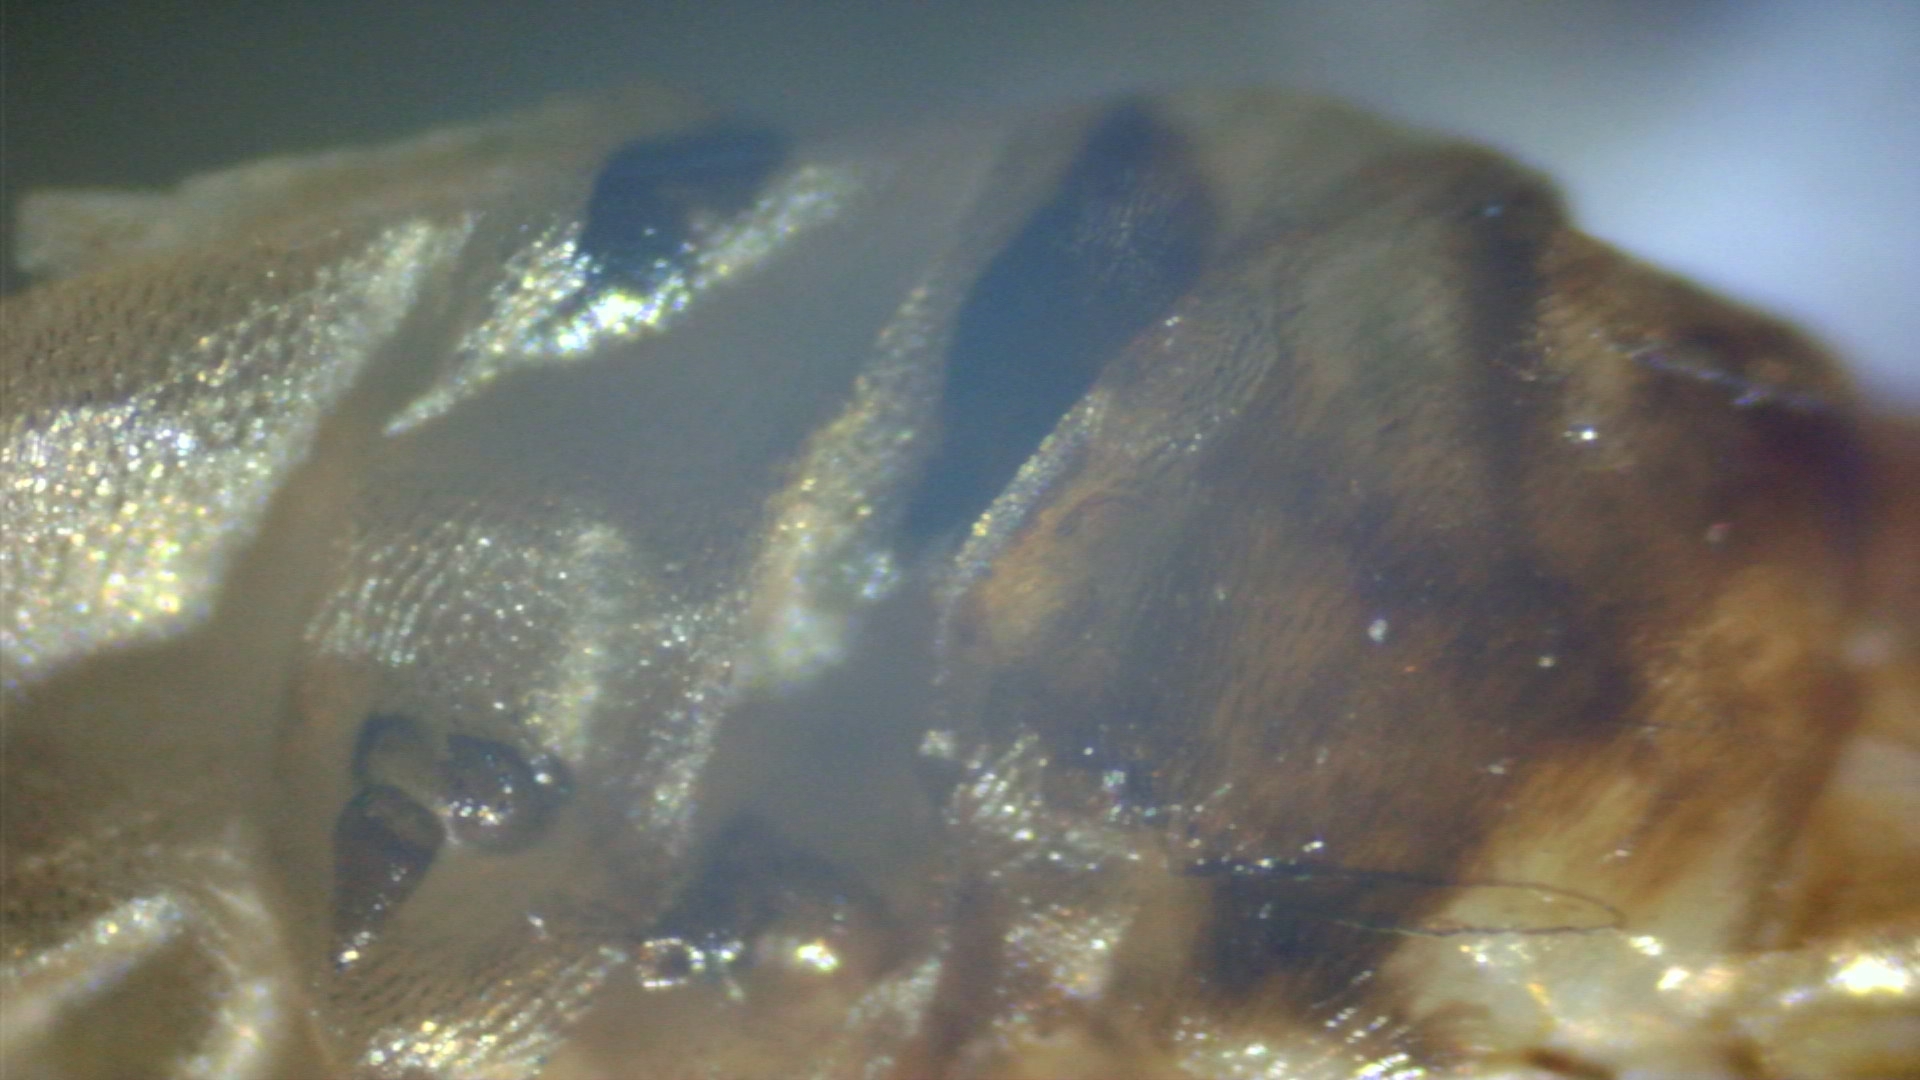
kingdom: Animalia
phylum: Arthropoda
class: Insecta
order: Hymenoptera
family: Tenthredinidae
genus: Profenusa
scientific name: Profenusa pygmaea
